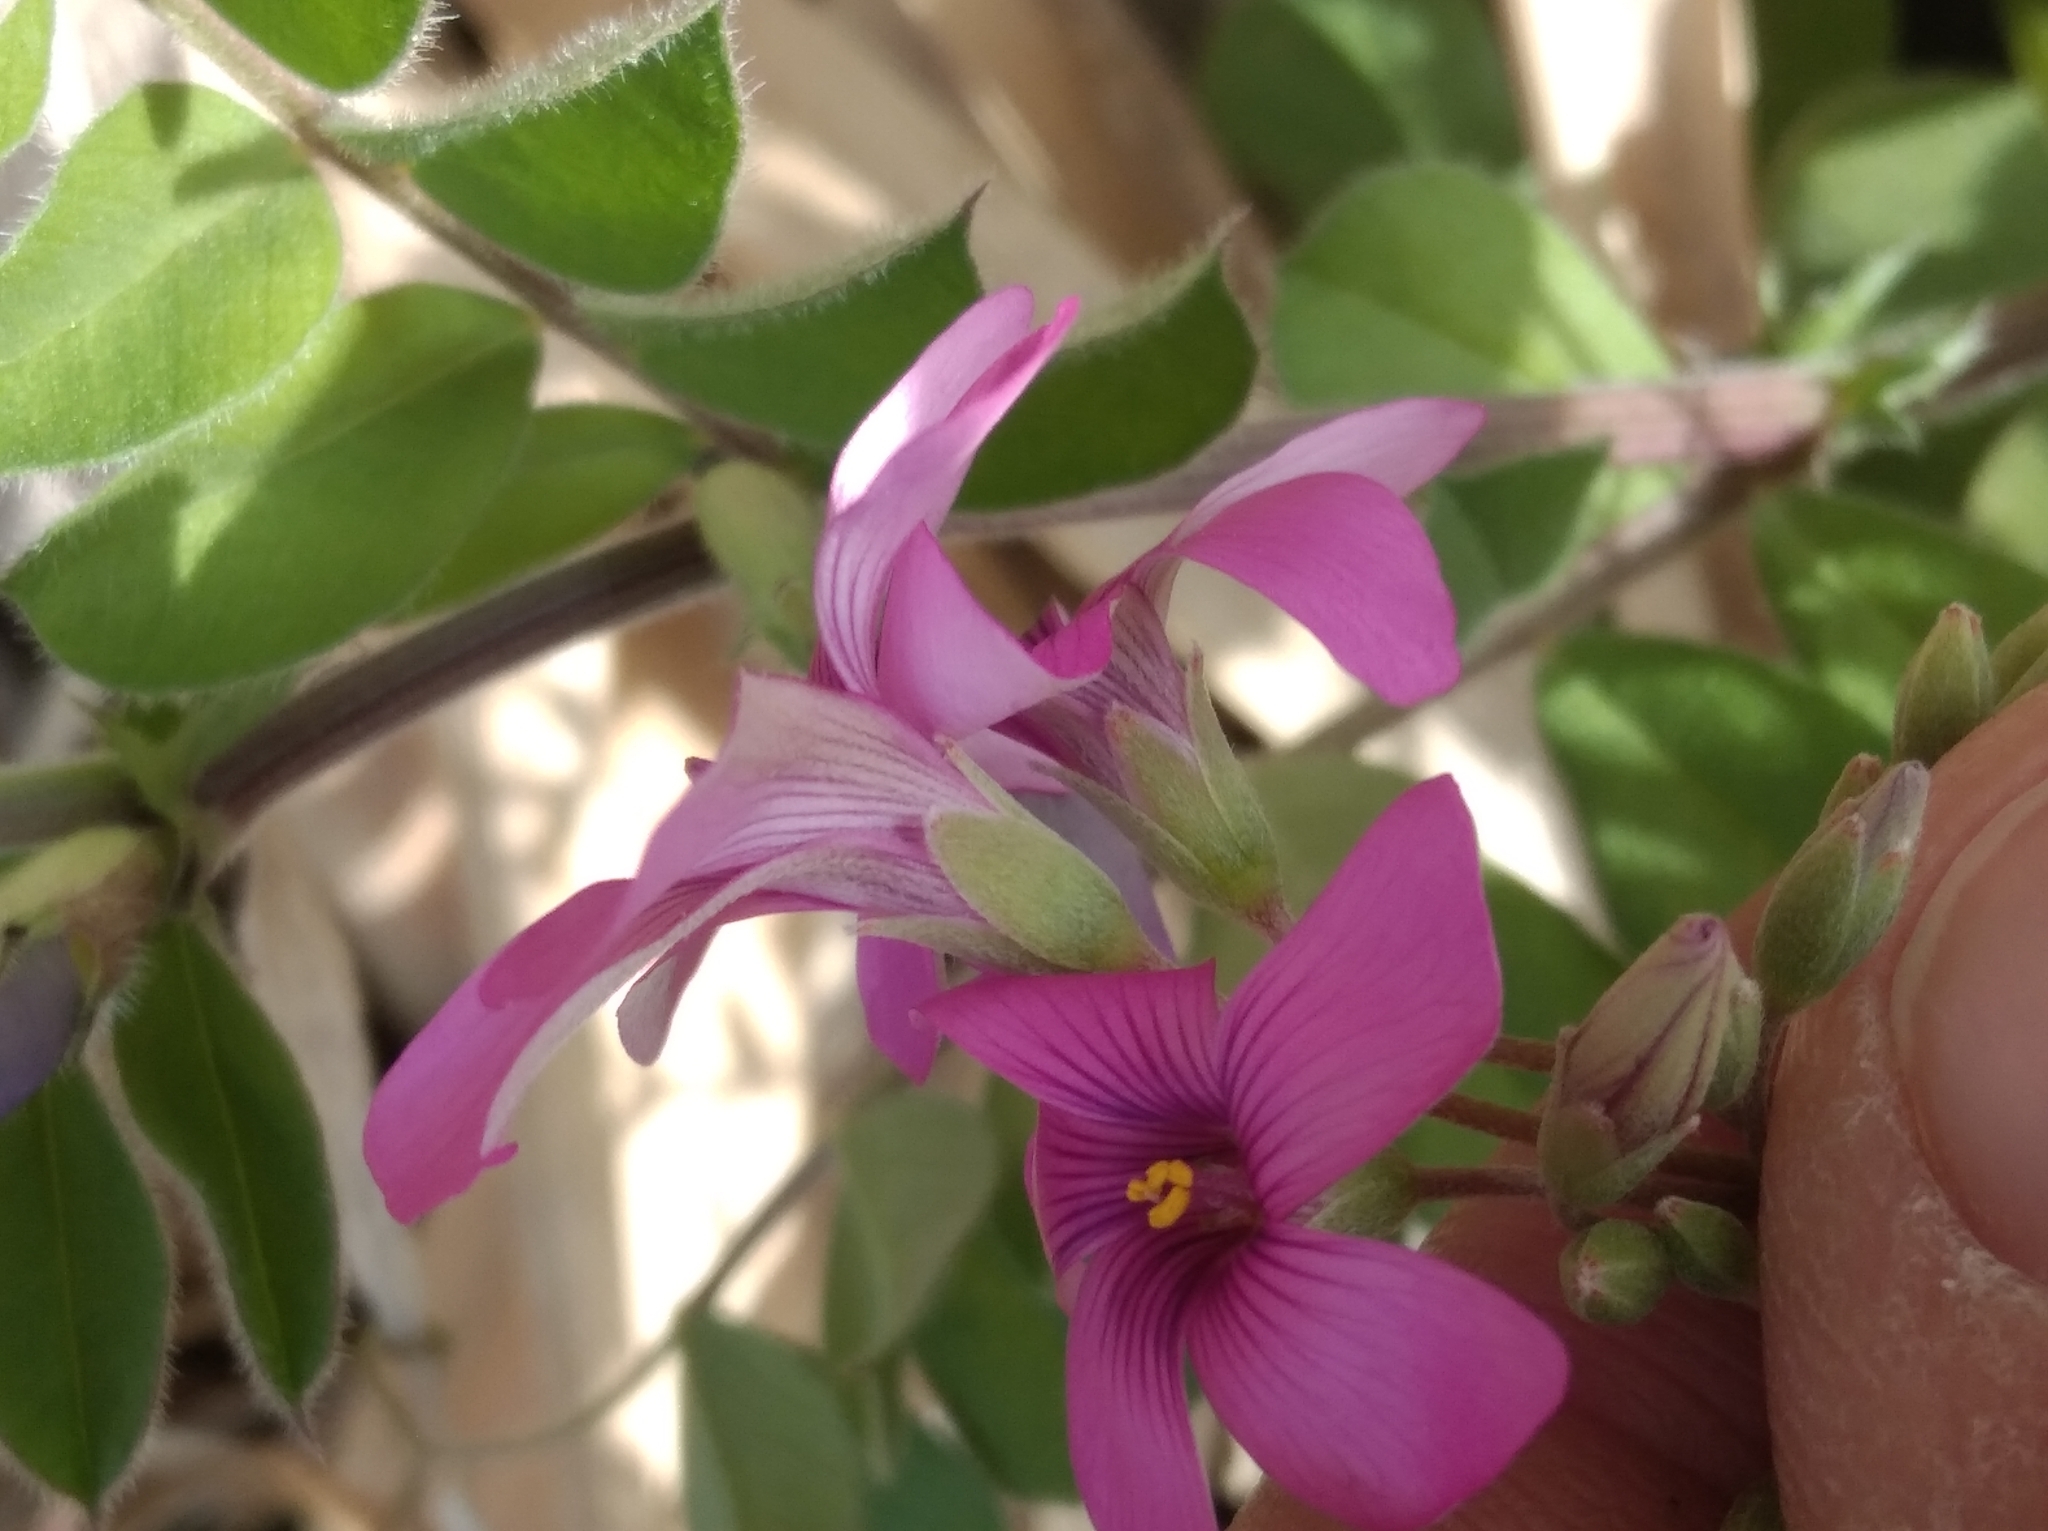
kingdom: Plantae
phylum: Tracheophyta
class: Magnoliopsida
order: Oxalidales
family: Oxalidaceae
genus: Oxalis
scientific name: Oxalis articulata
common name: Pink-sorrel
